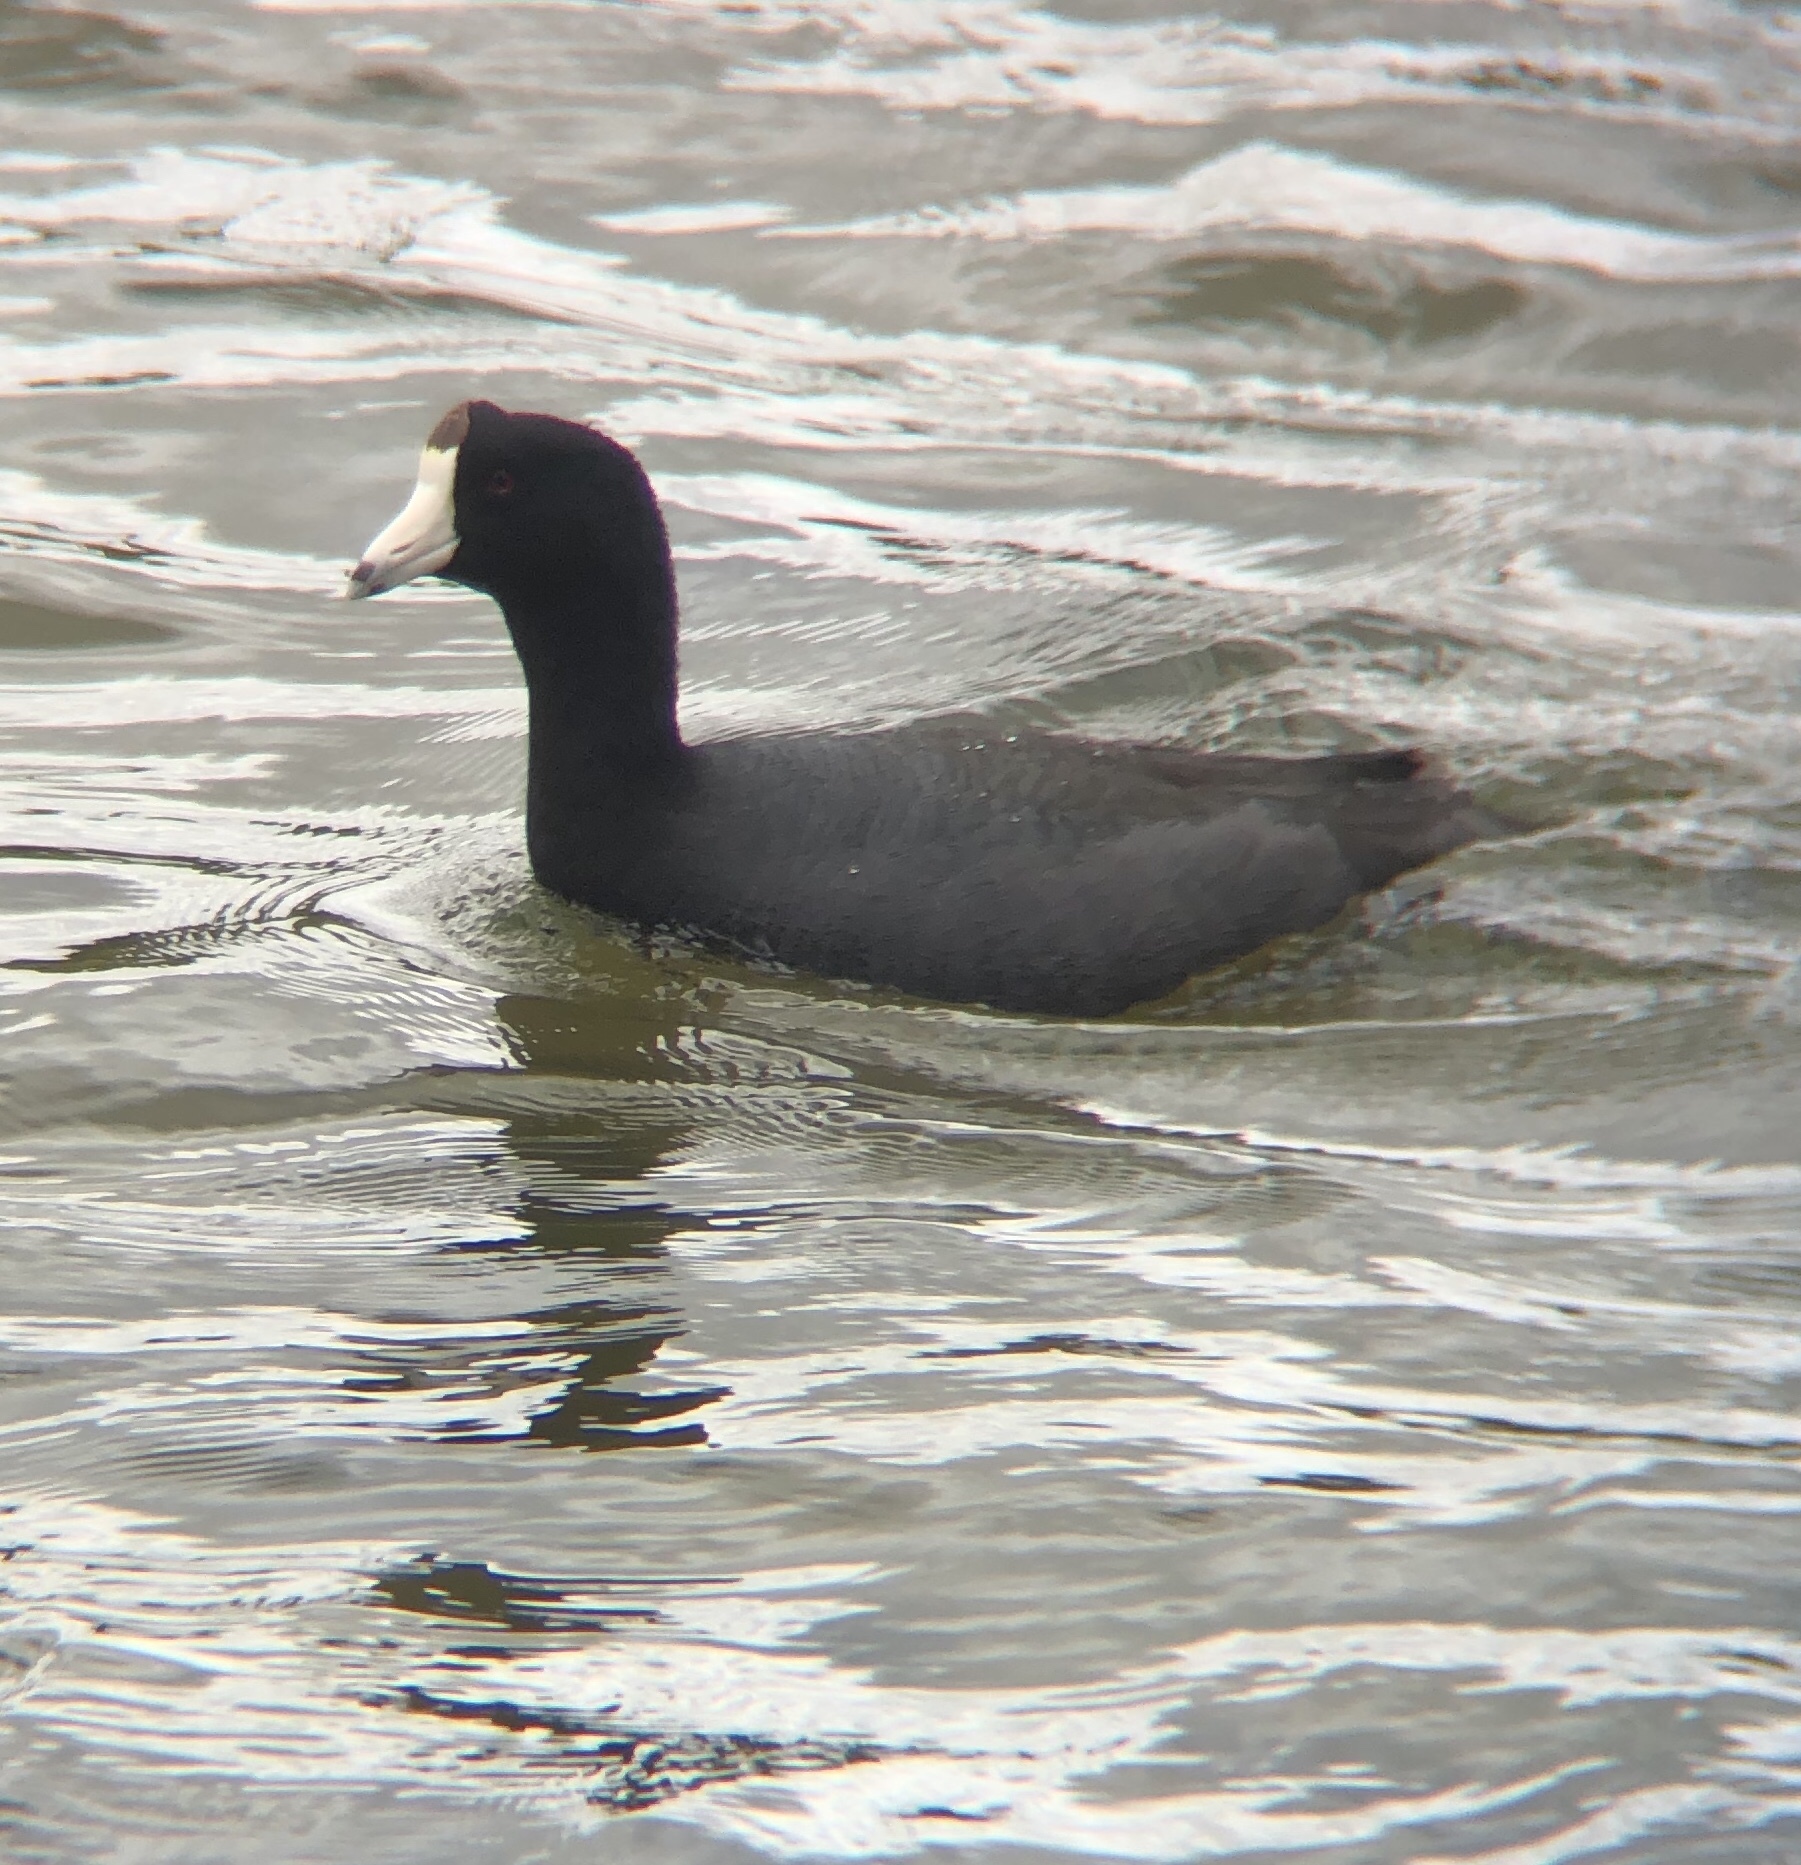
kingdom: Animalia
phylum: Chordata
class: Aves
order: Gruiformes
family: Rallidae
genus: Fulica
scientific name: Fulica americana
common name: American coot
